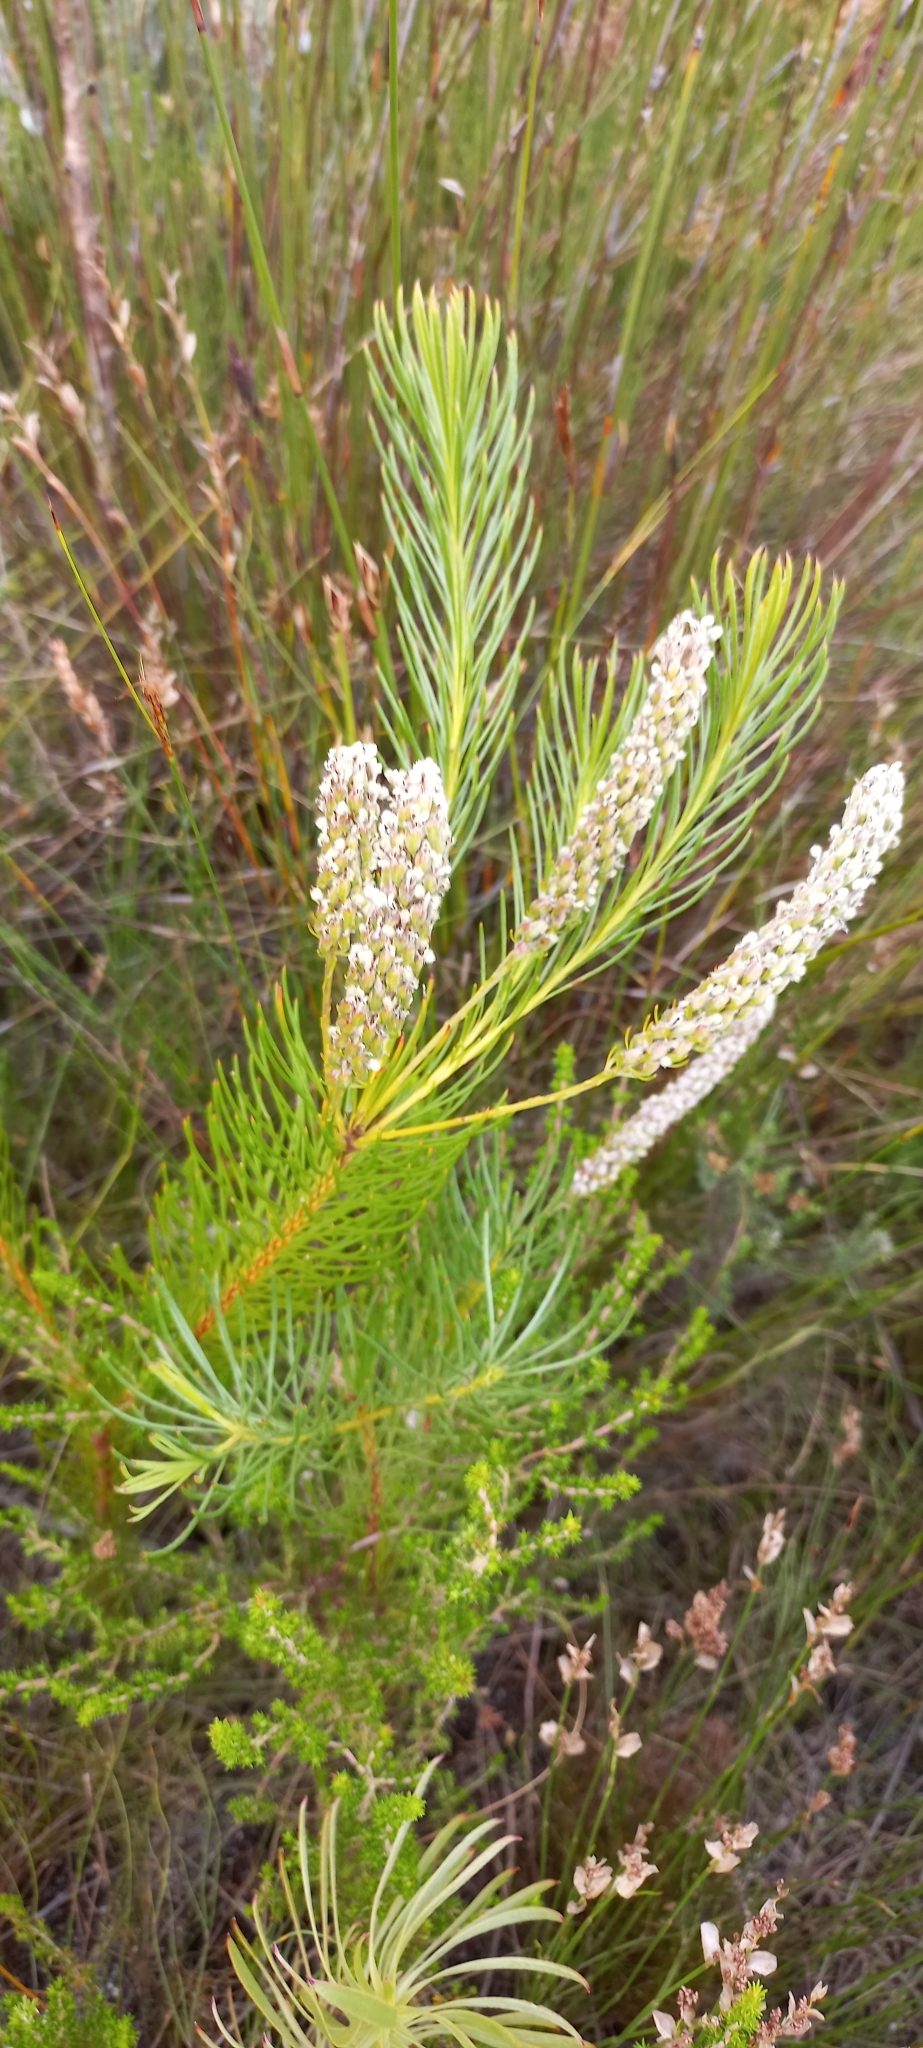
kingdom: Plantae
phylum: Tracheophyta
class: Magnoliopsida
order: Proteales
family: Proteaceae
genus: Spatalla
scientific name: Spatalla curvifolia
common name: White-stalked spoon
